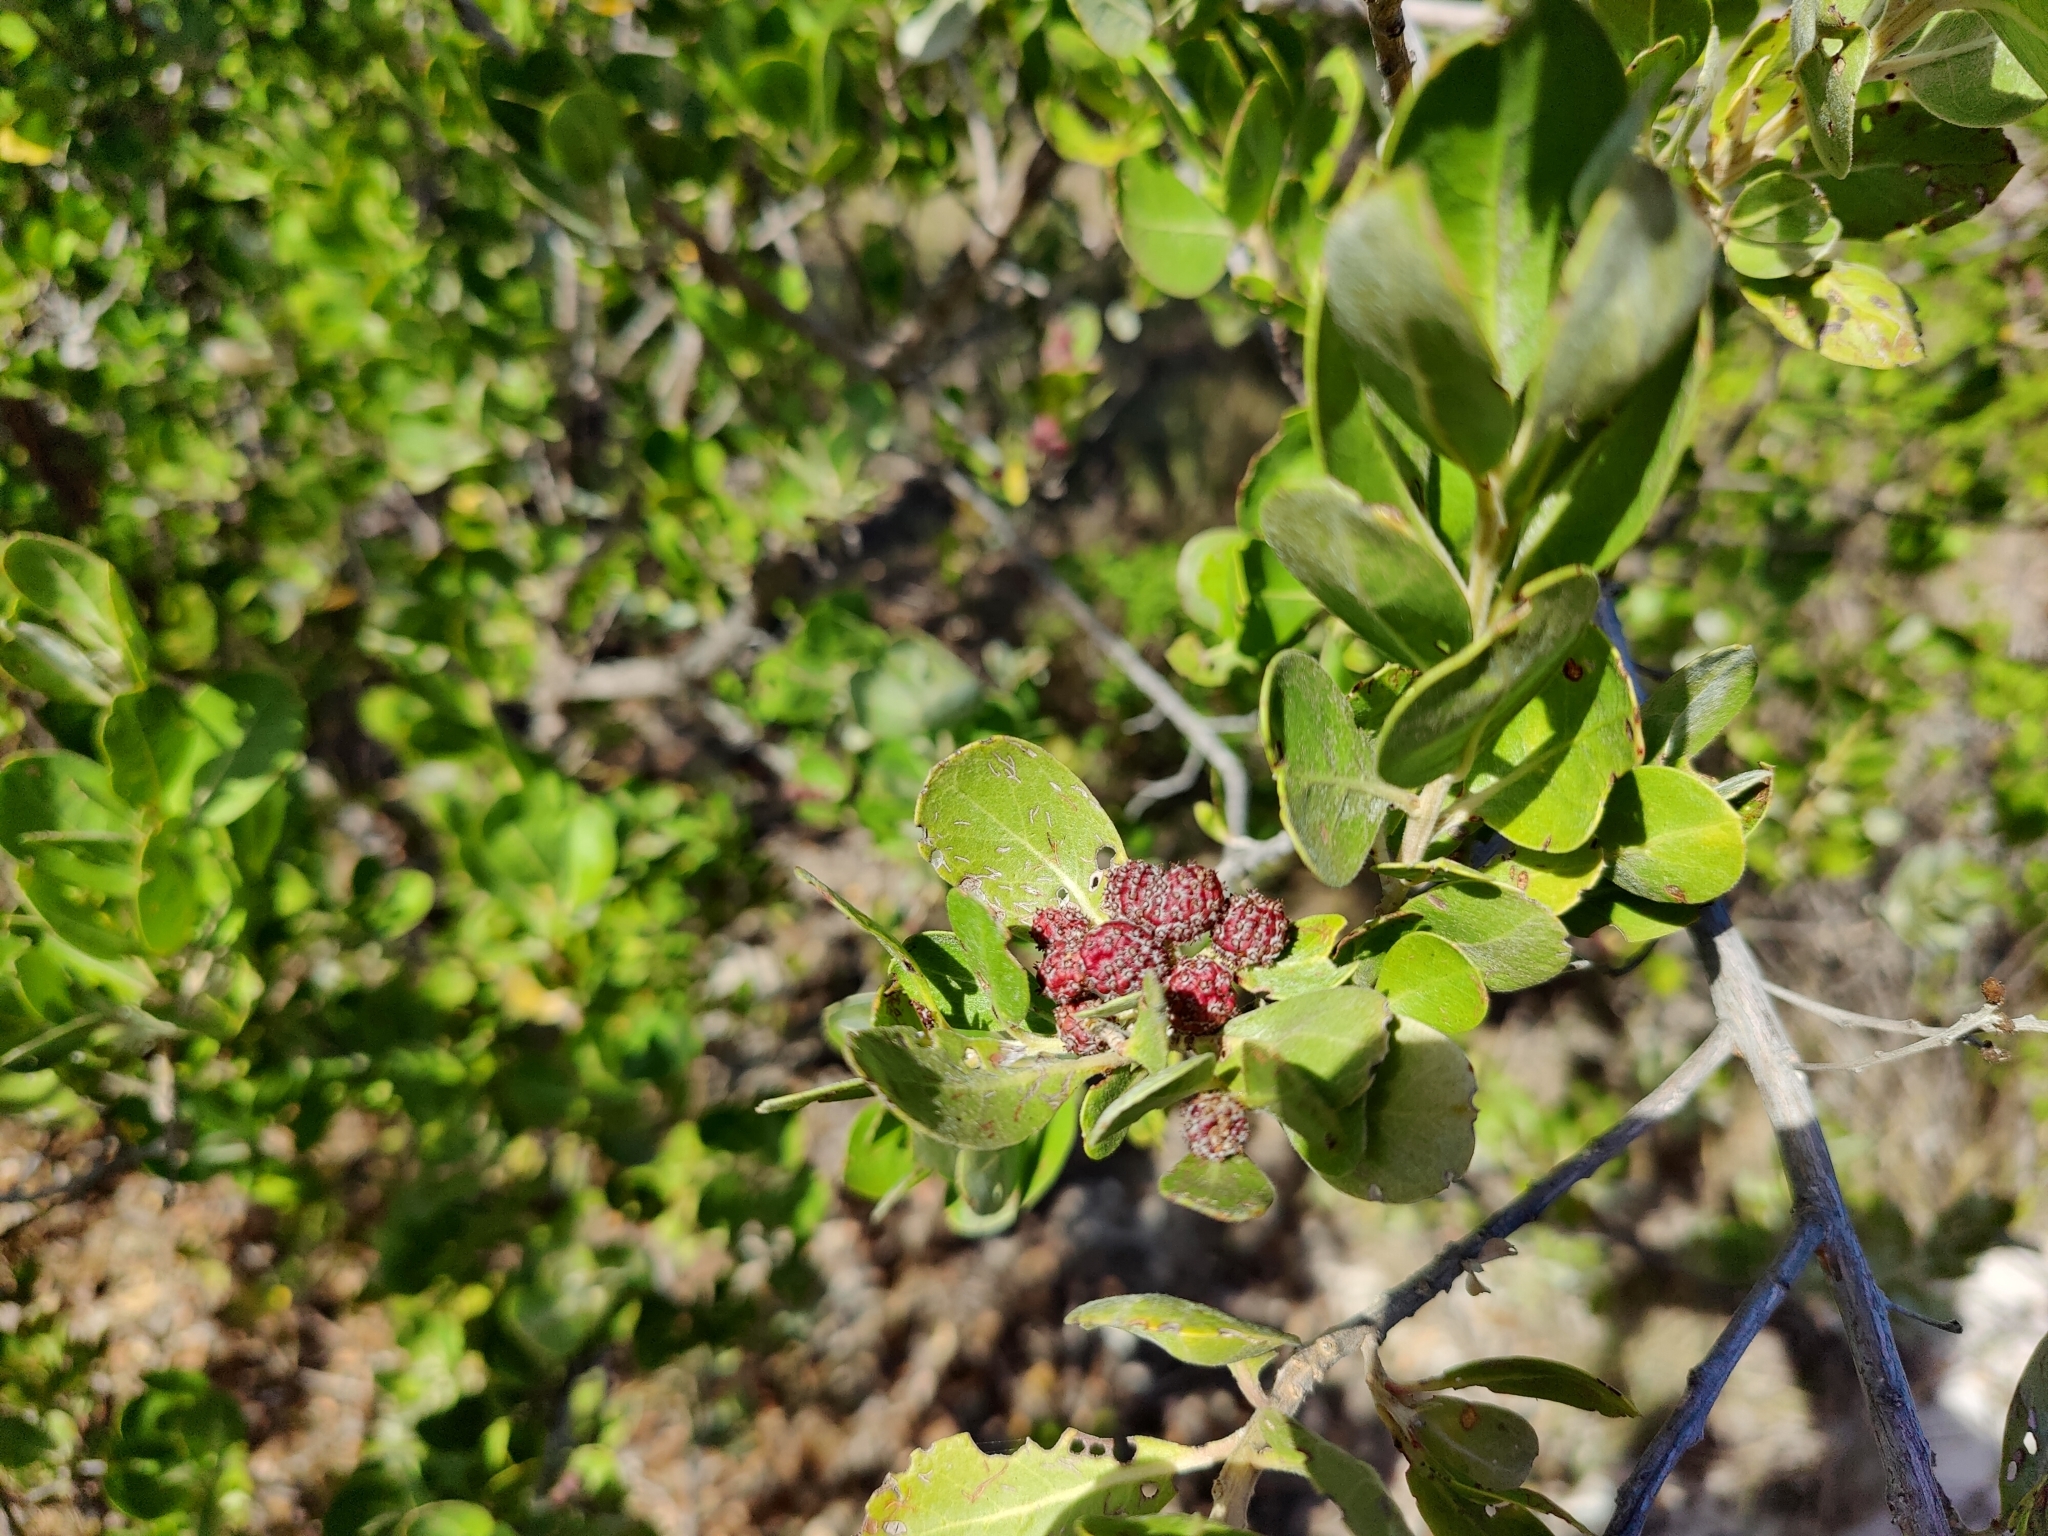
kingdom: Plantae
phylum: Tracheophyta
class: Magnoliopsida
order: Myrtales
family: Combretaceae
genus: Conocarpus
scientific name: Conocarpus erectus
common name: Button mangrove
